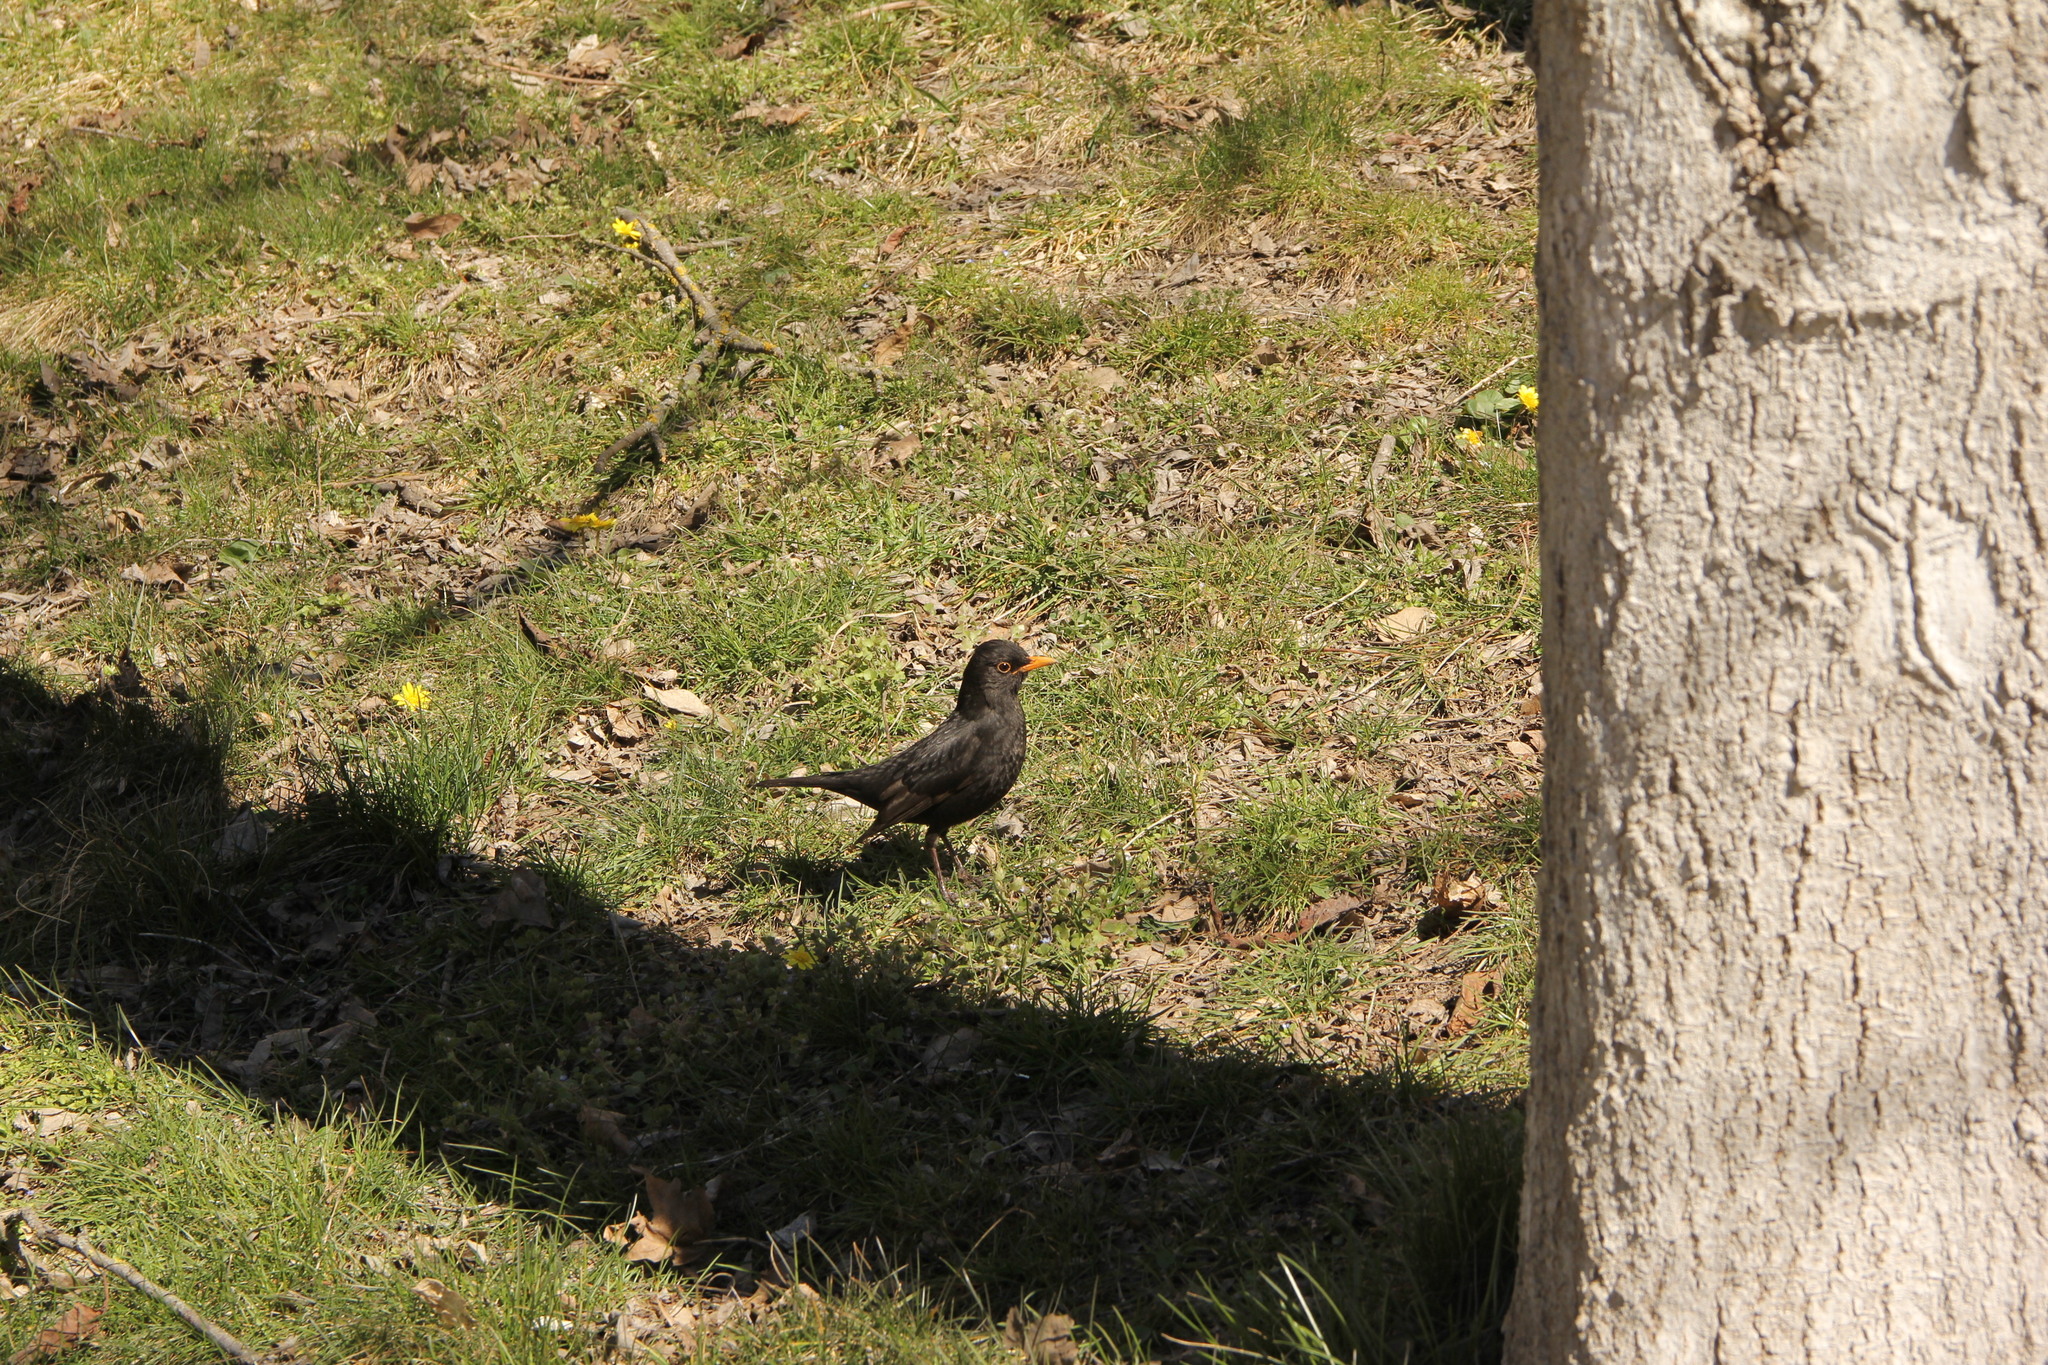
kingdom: Animalia
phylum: Chordata
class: Aves
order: Passeriformes
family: Turdidae
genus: Turdus
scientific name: Turdus merula
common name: Common blackbird
